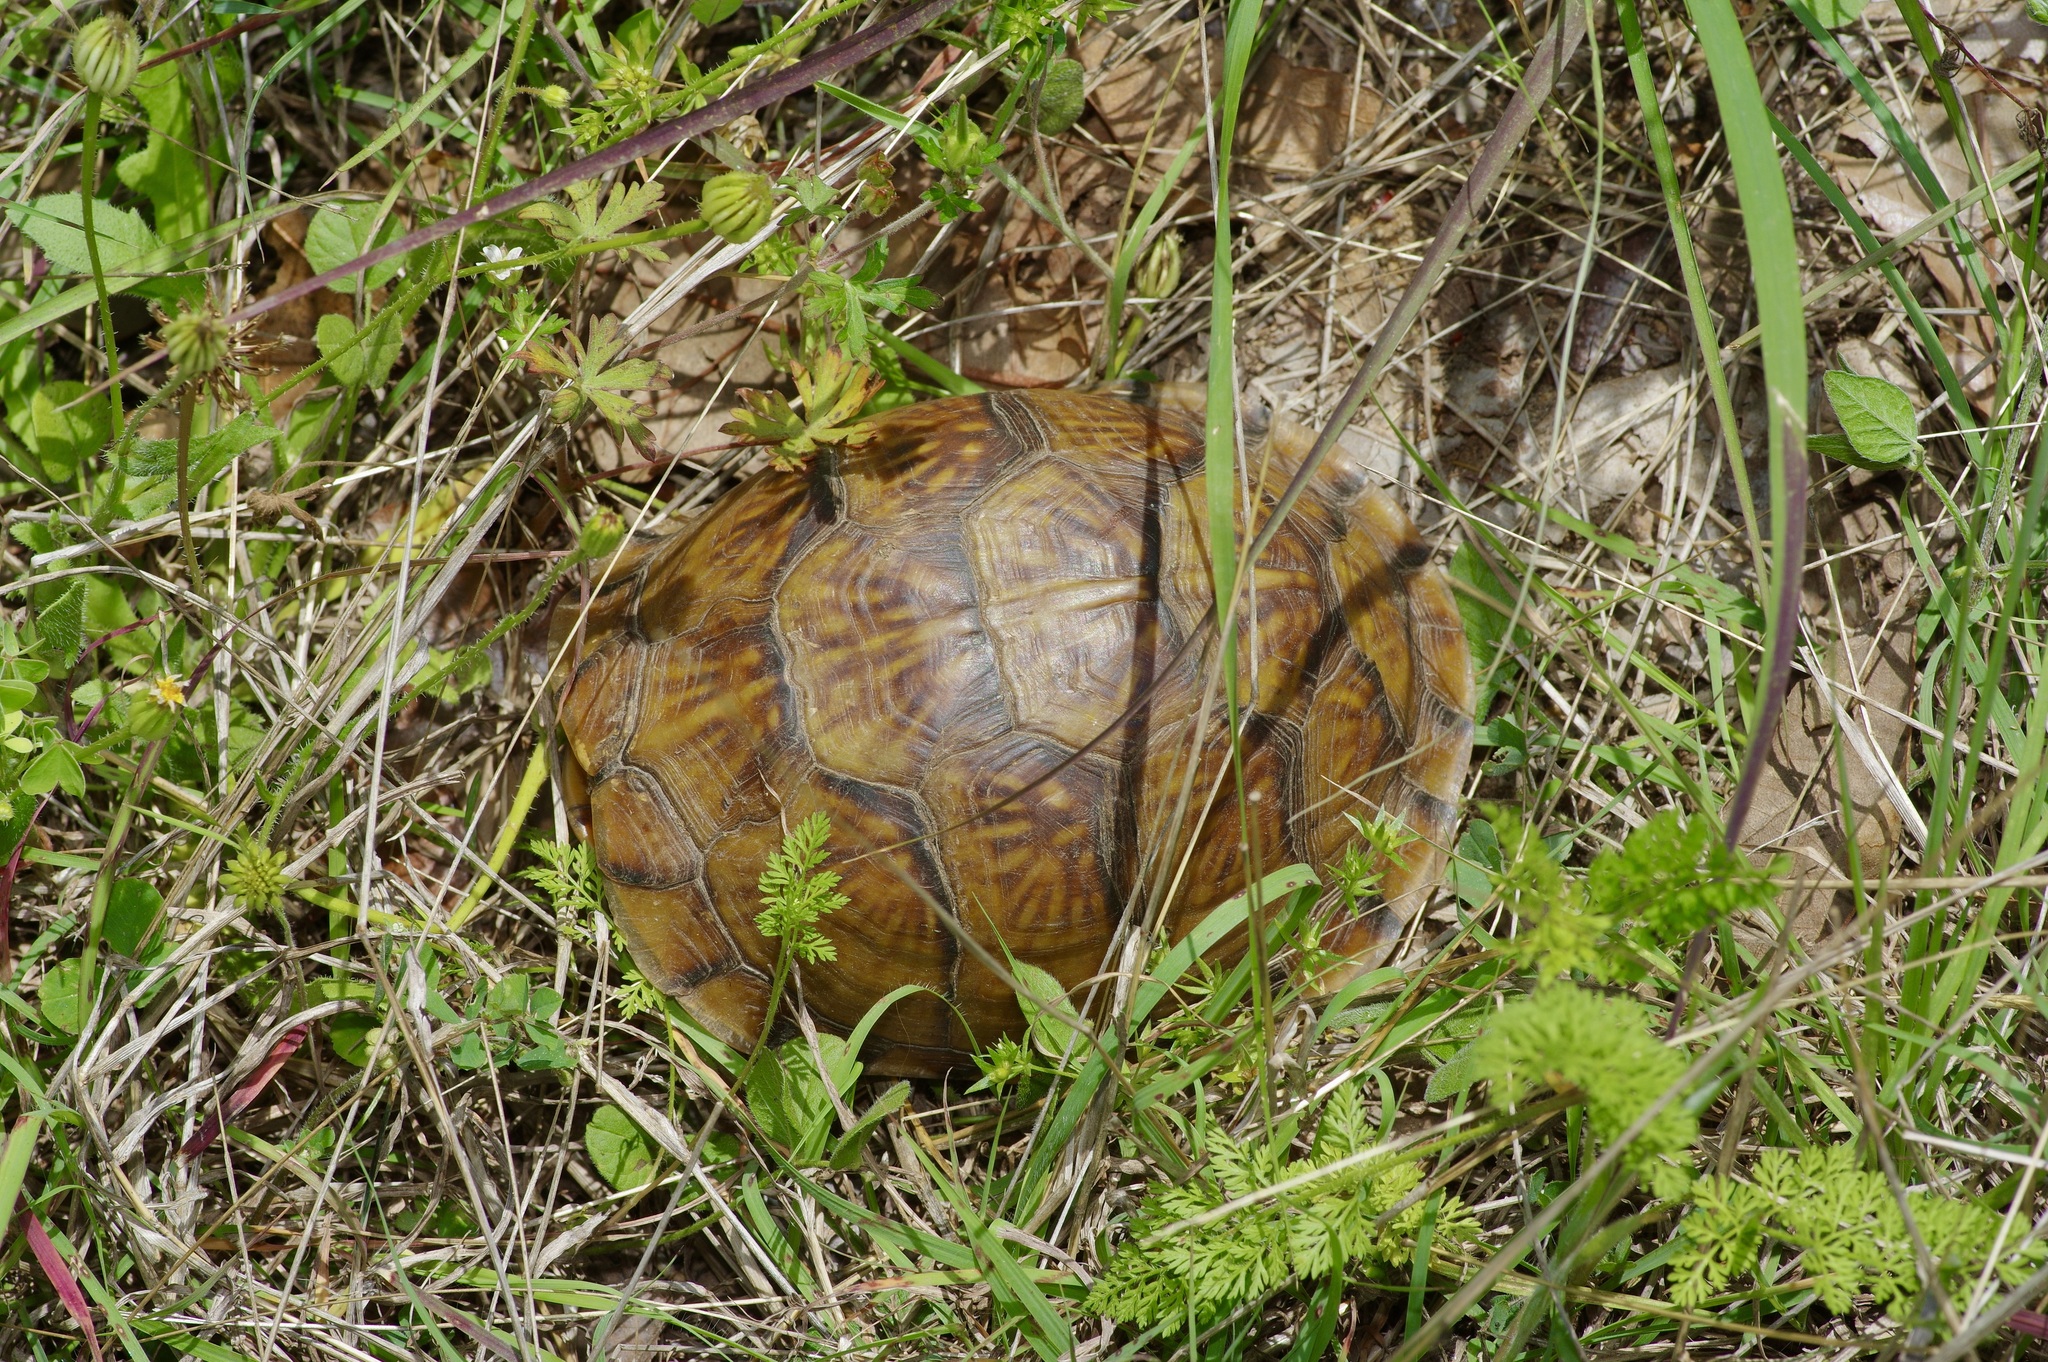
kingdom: Animalia
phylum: Chordata
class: Testudines
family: Emydidae
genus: Terrapene
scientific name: Terrapene carolina
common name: Common box turtle
